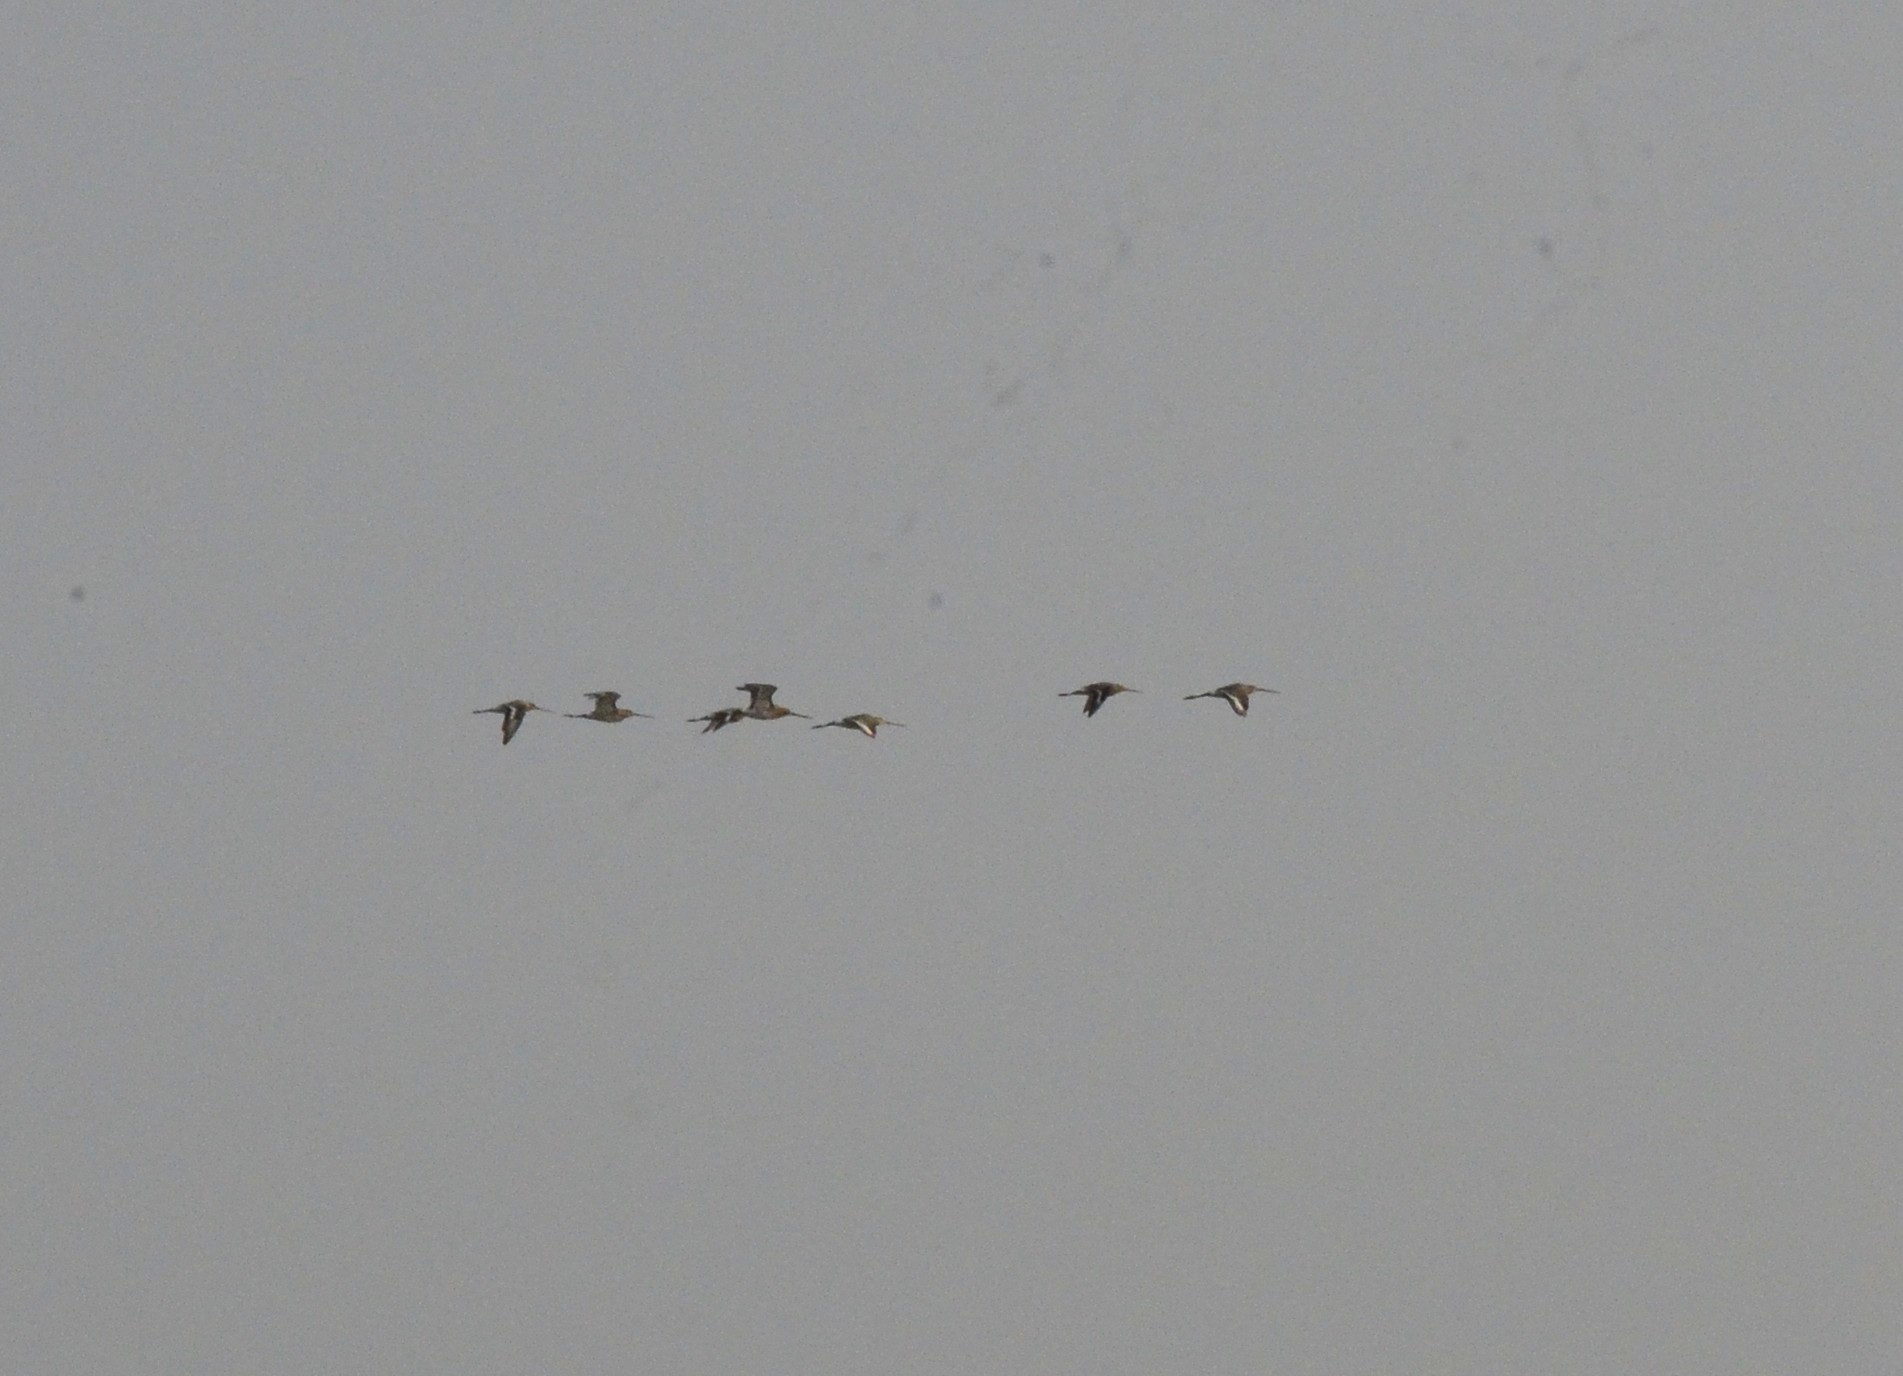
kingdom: Animalia
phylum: Chordata
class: Aves
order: Charadriiformes
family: Scolopacidae
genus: Limosa
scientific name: Limosa limosa
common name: Black-tailed godwit
